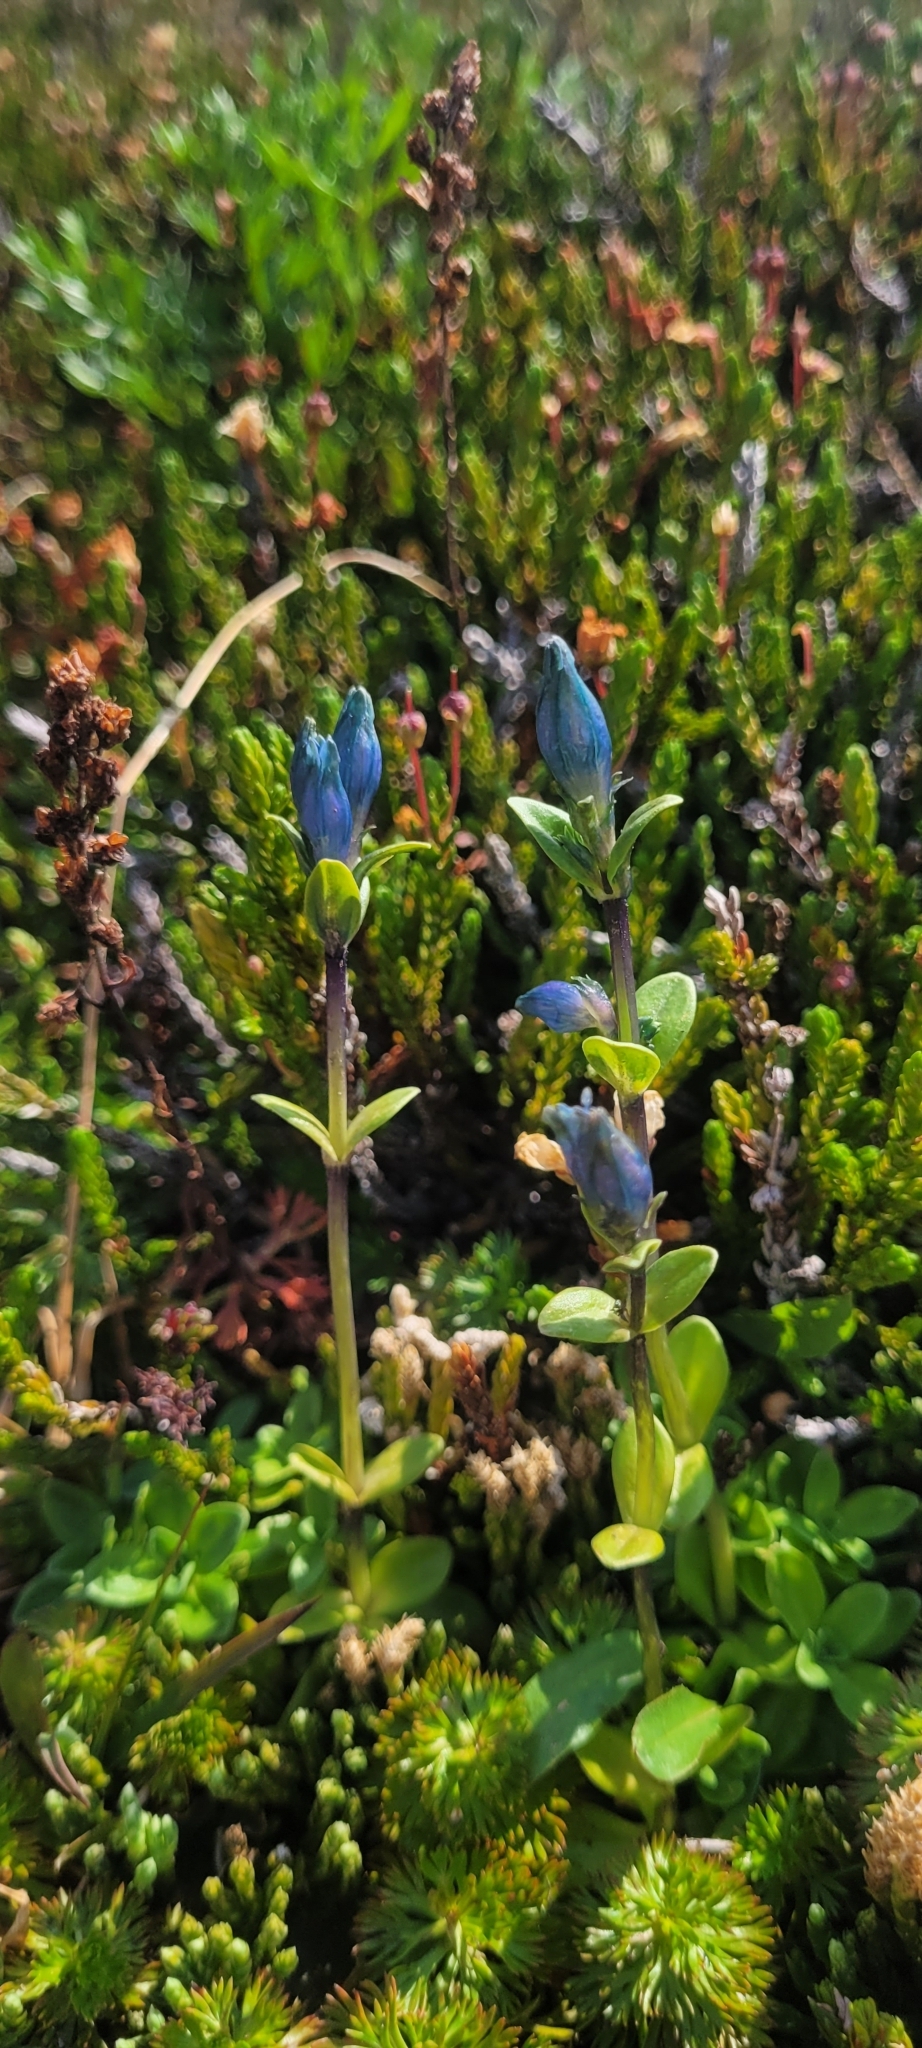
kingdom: Plantae
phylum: Tracheophyta
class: Magnoliopsida
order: Gentianales
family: Gentianaceae
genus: Gentiana
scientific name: Gentiana glauca
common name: Alpine gentian
